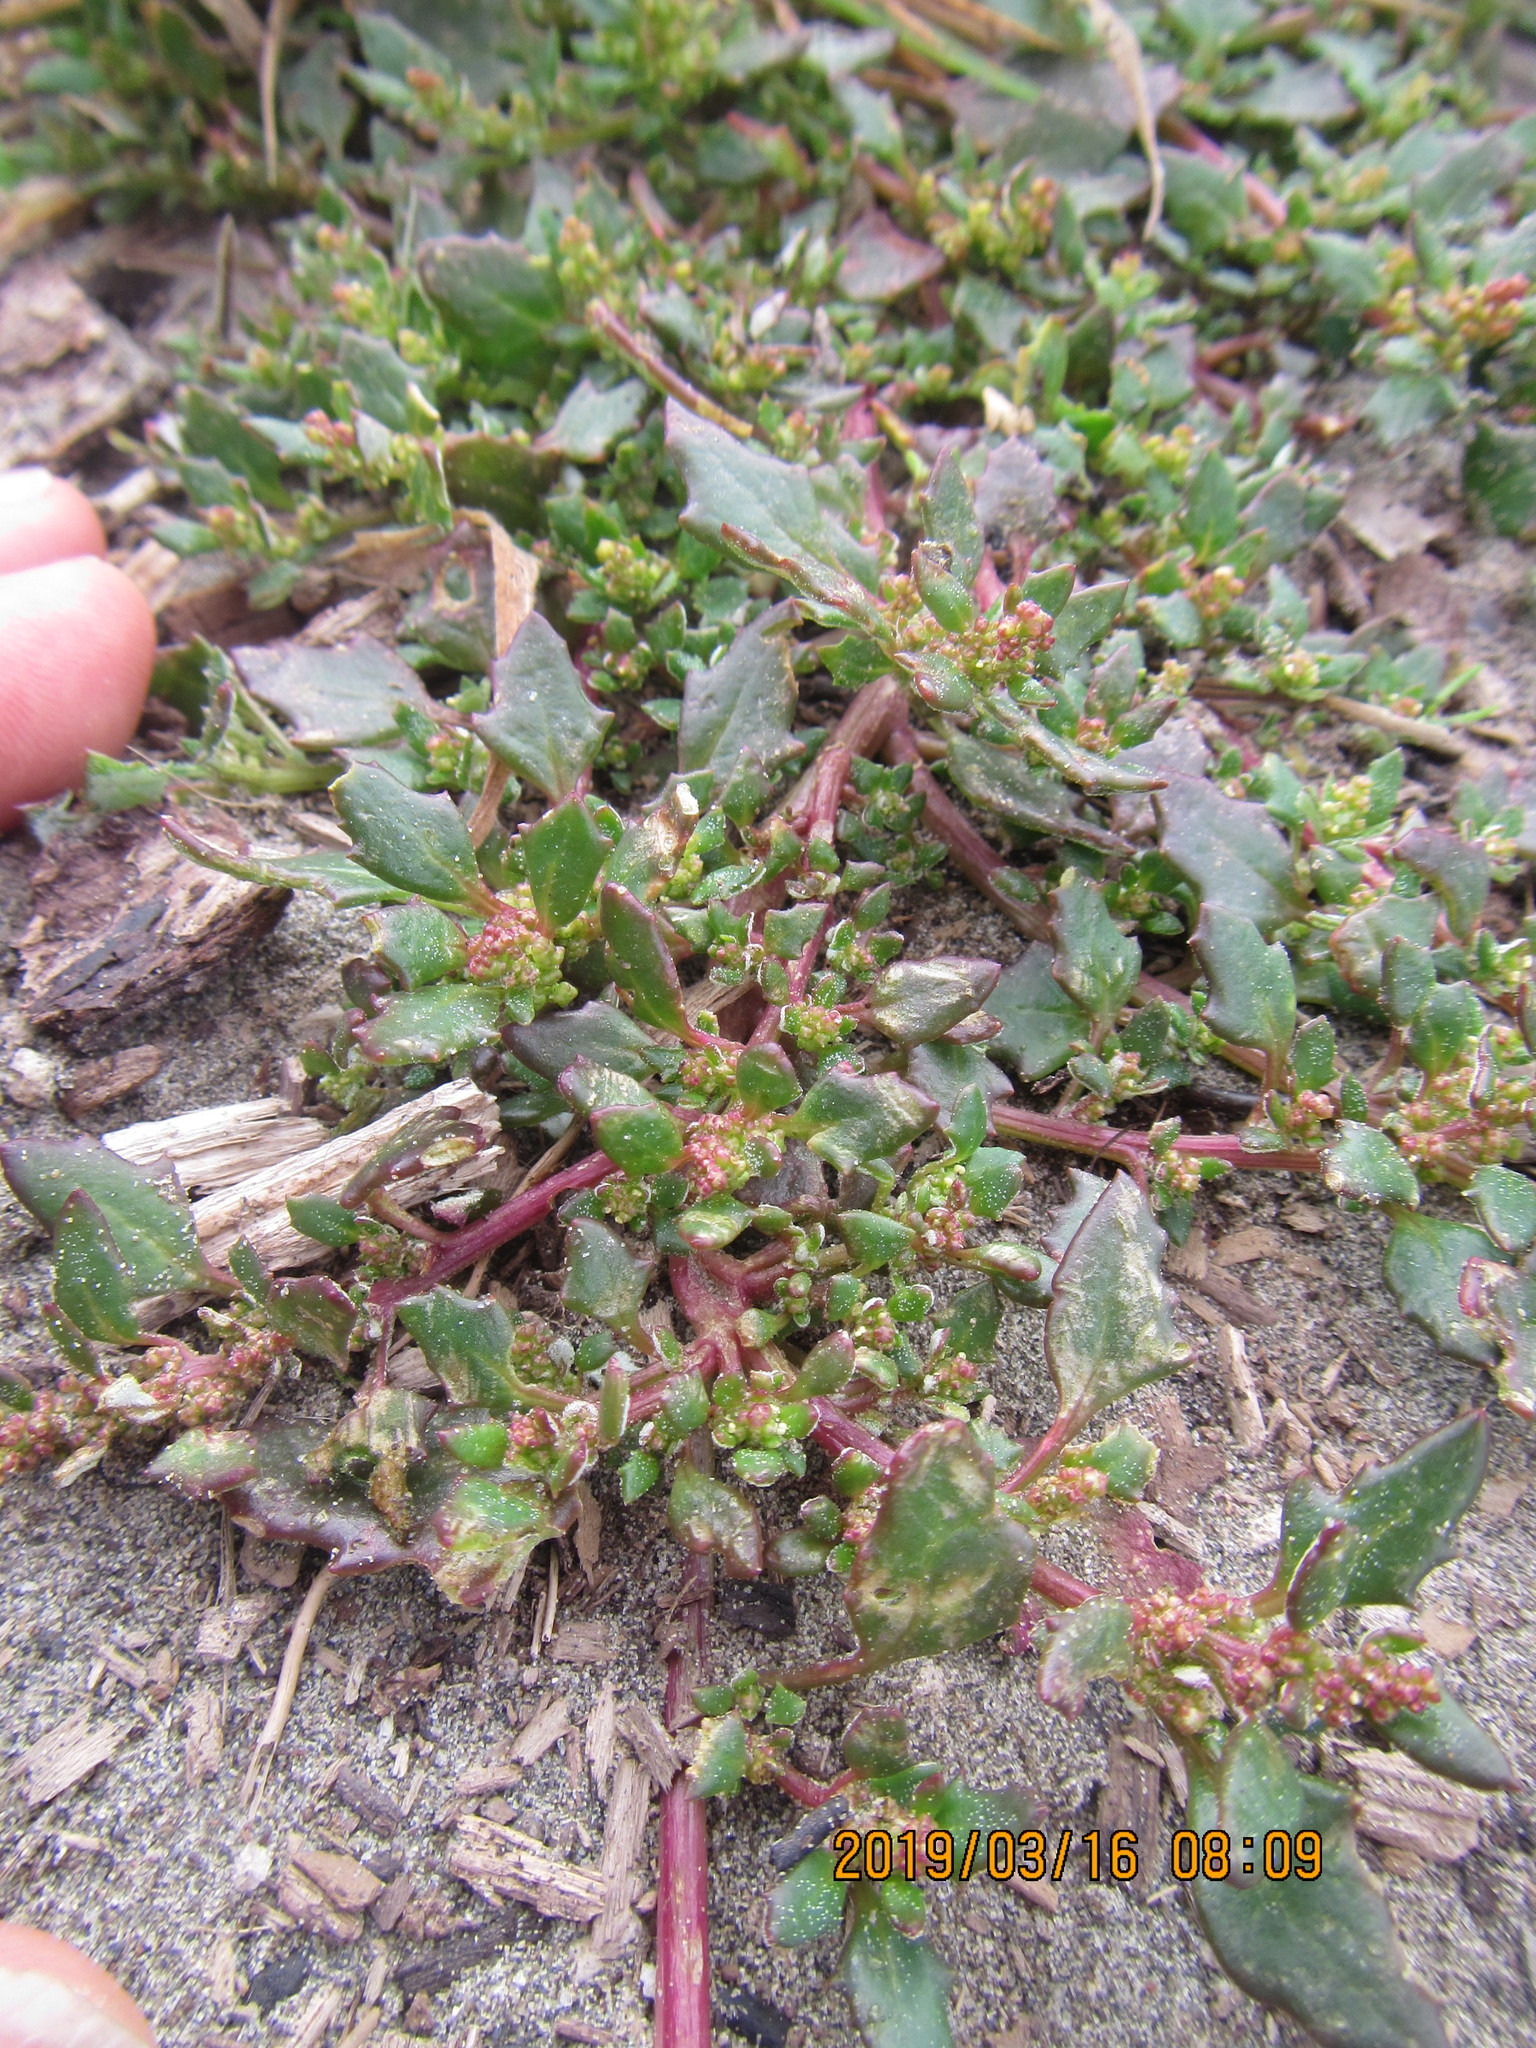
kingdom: Plantae
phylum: Tracheophyta
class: Magnoliopsida
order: Caryophyllales
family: Amaranthaceae
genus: Oxybasis
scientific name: Oxybasis ambigua
